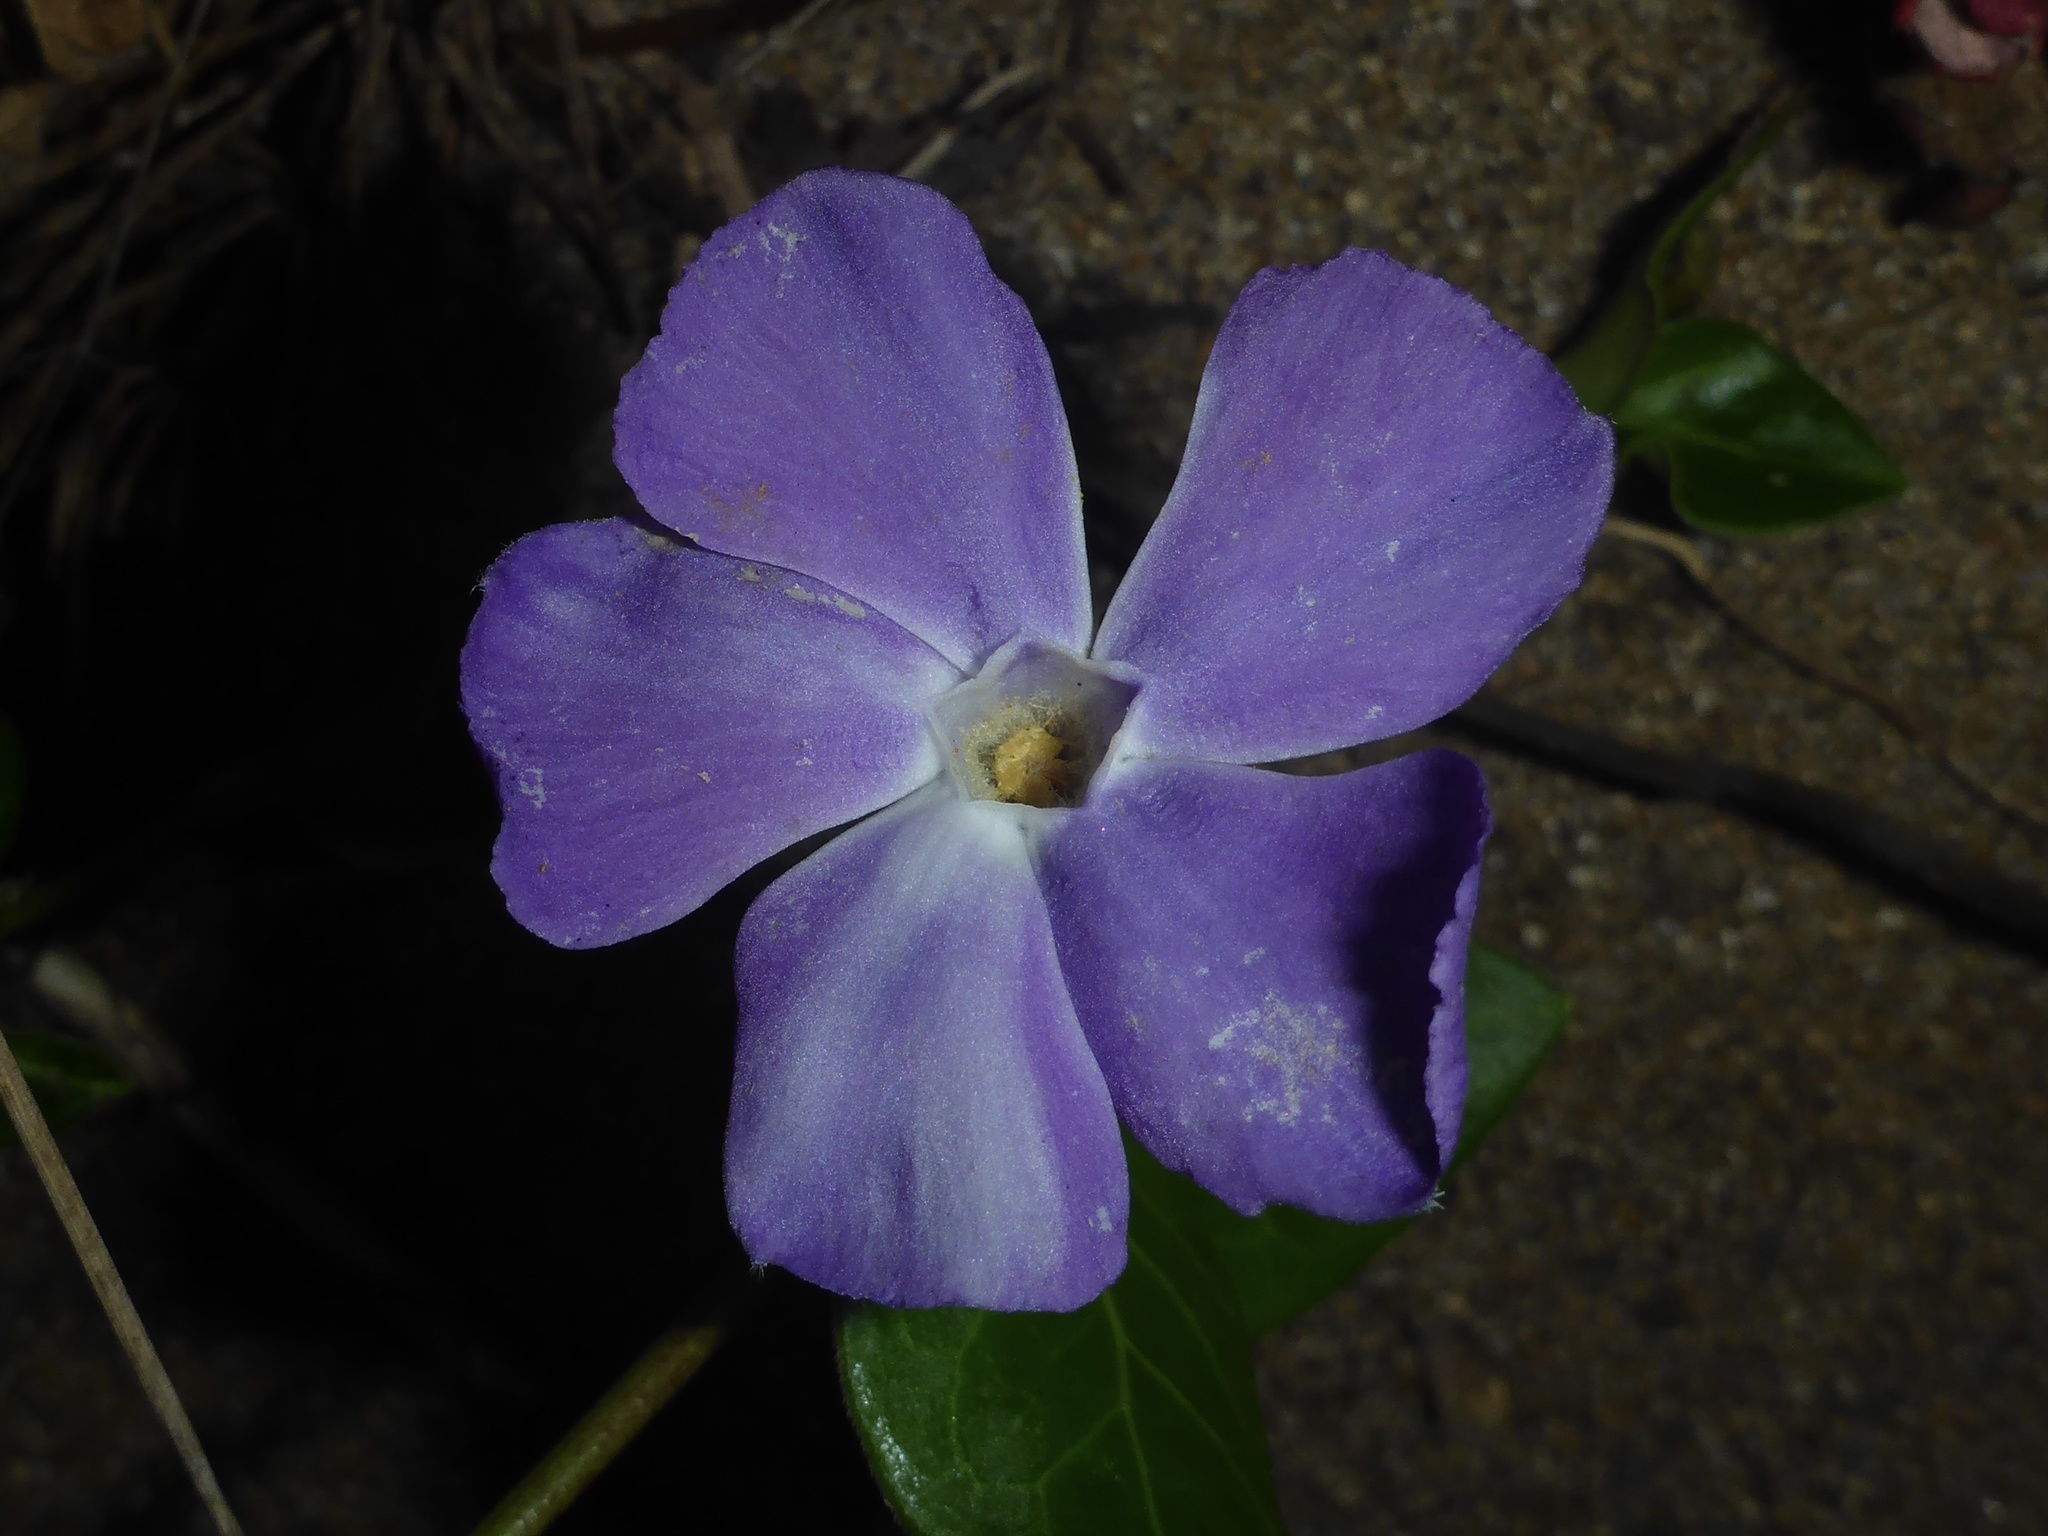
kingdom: Plantae
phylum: Tracheophyta
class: Magnoliopsida
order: Gentianales
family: Apocynaceae
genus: Vinca
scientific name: Vinca major
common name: Greater periwinkle
